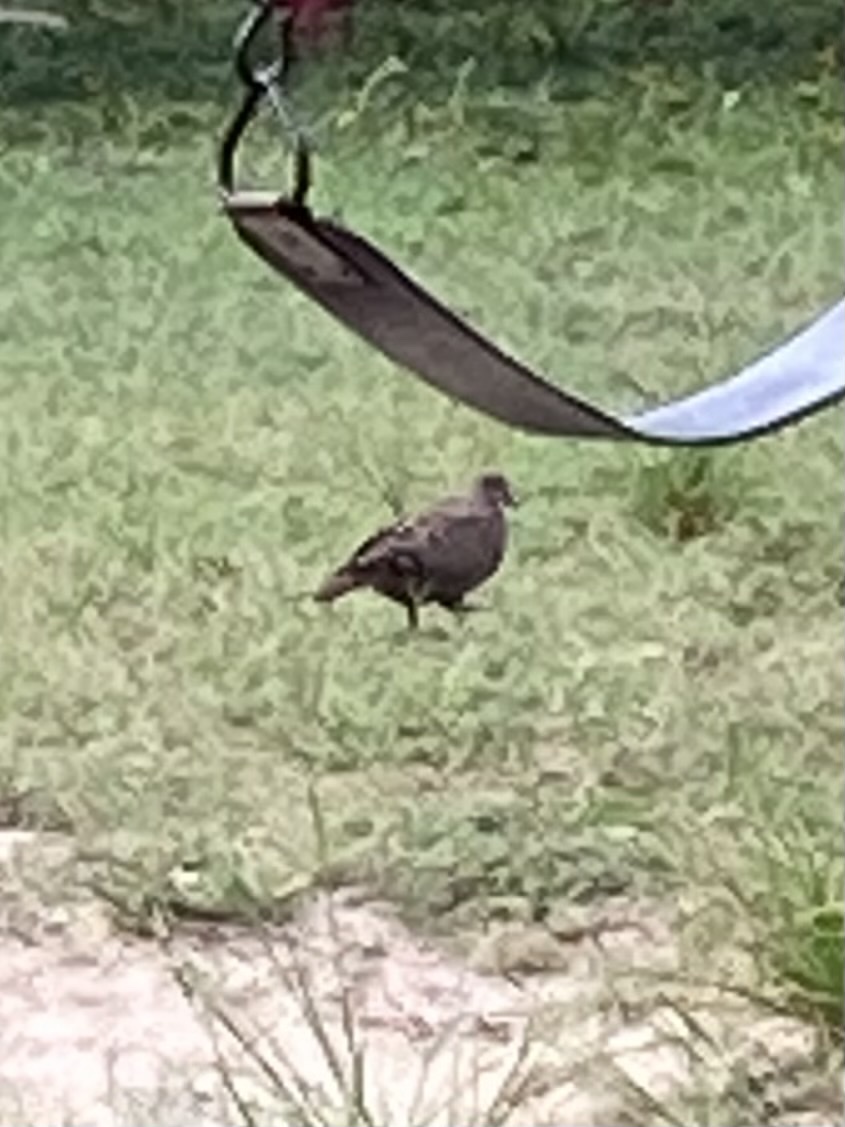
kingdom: Animalia
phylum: Chordata
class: Aves
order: Columbiformes
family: Columbidae
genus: Zenaida
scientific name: Zenaida aurita
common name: Zenaida dove
